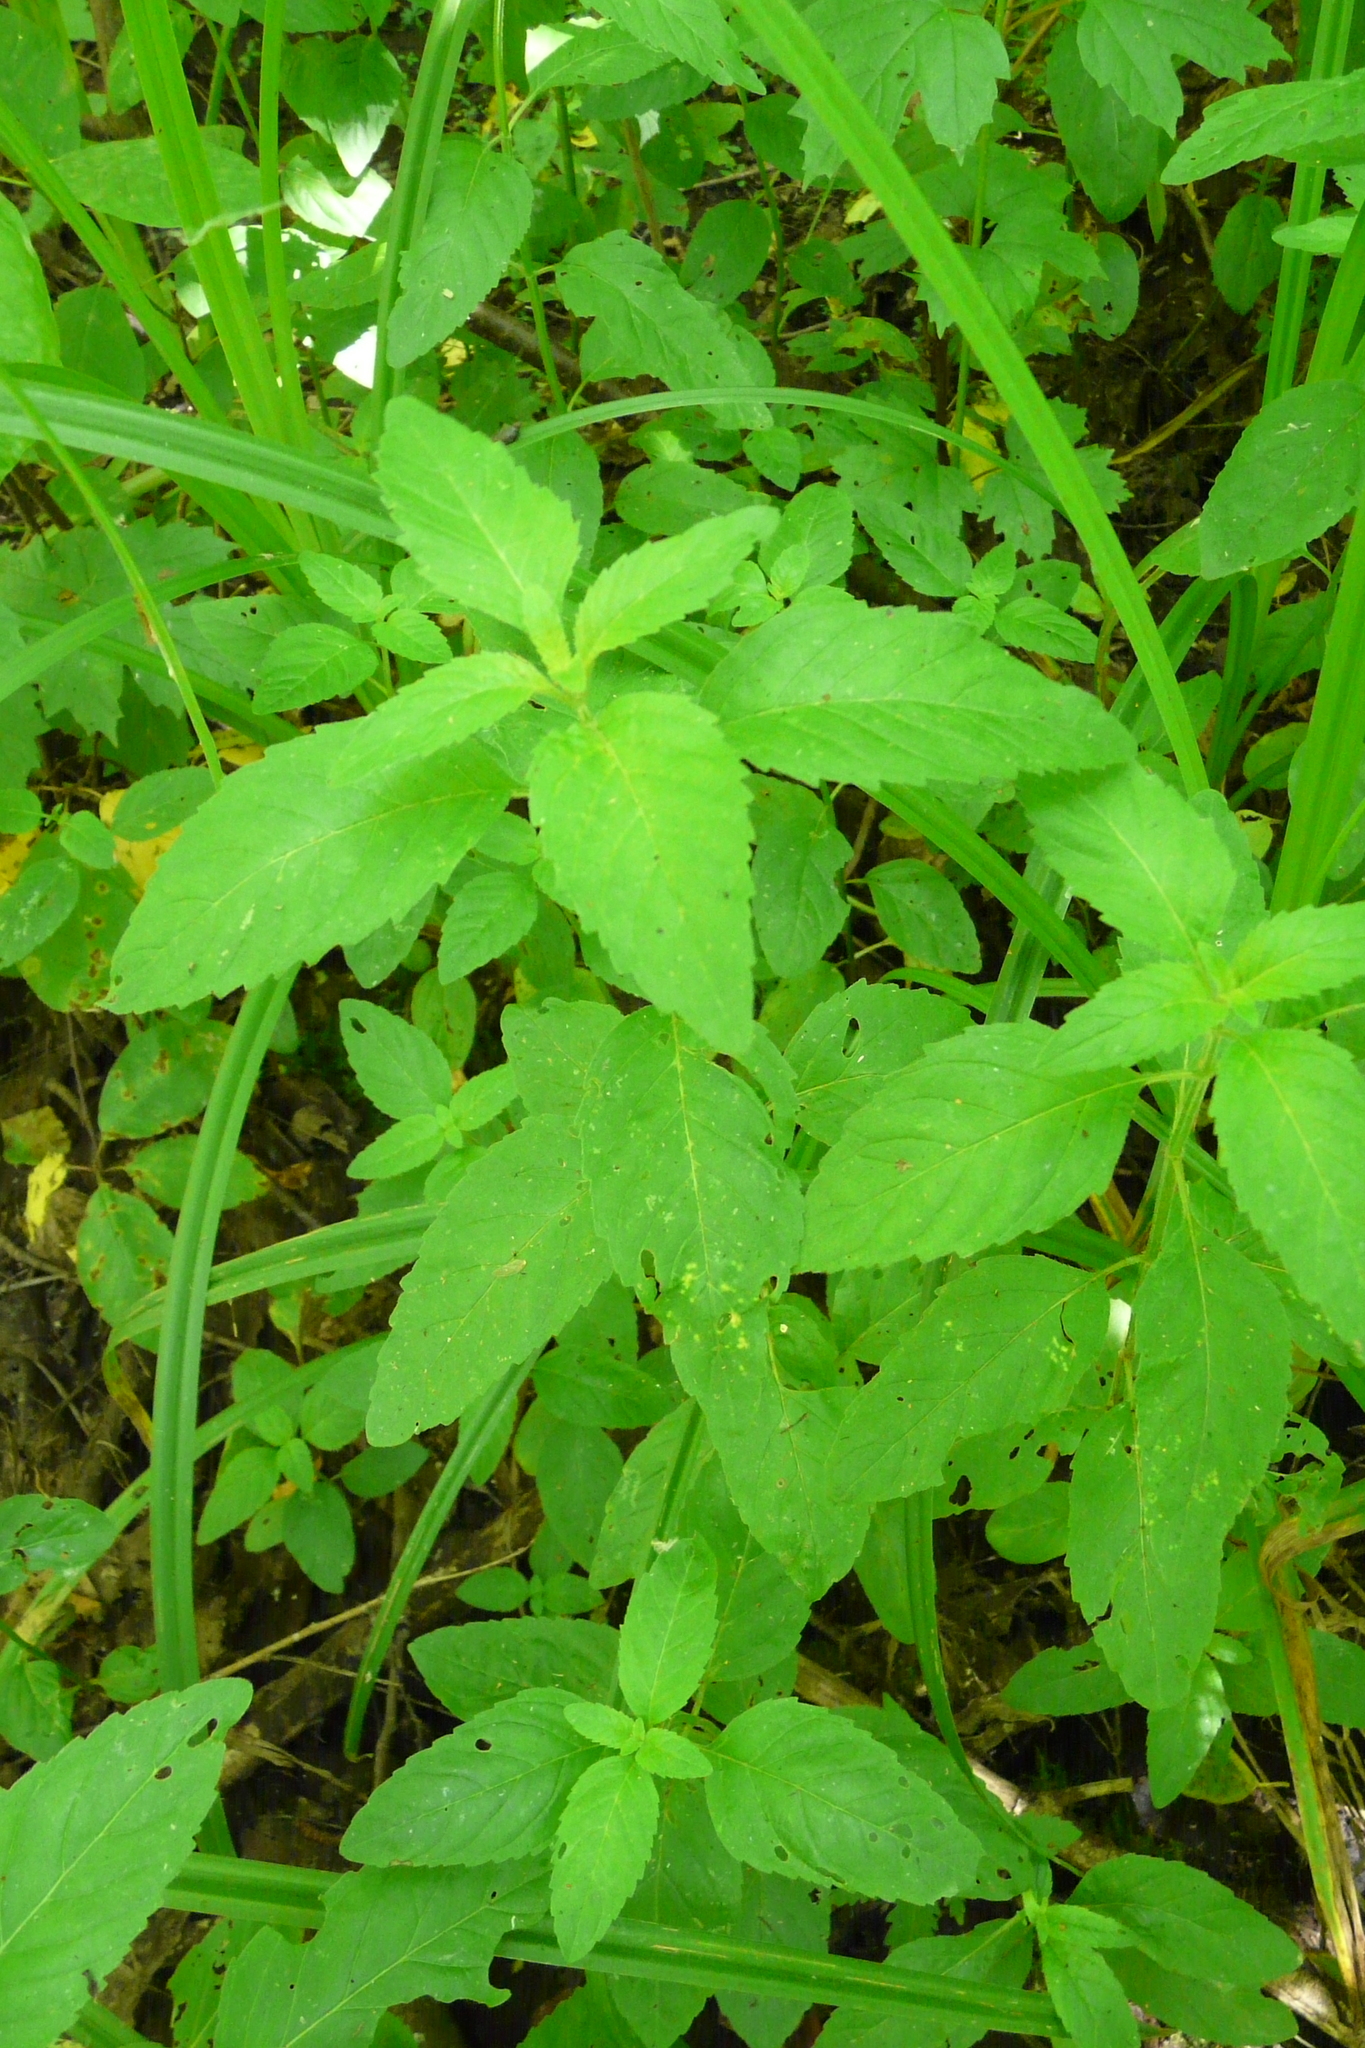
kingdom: Plantae
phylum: Tracheophyta
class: Magnoliopsida
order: Lamiales
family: Lamiaceae
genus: Mentha
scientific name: Mentha arvensis
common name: Corn mint
